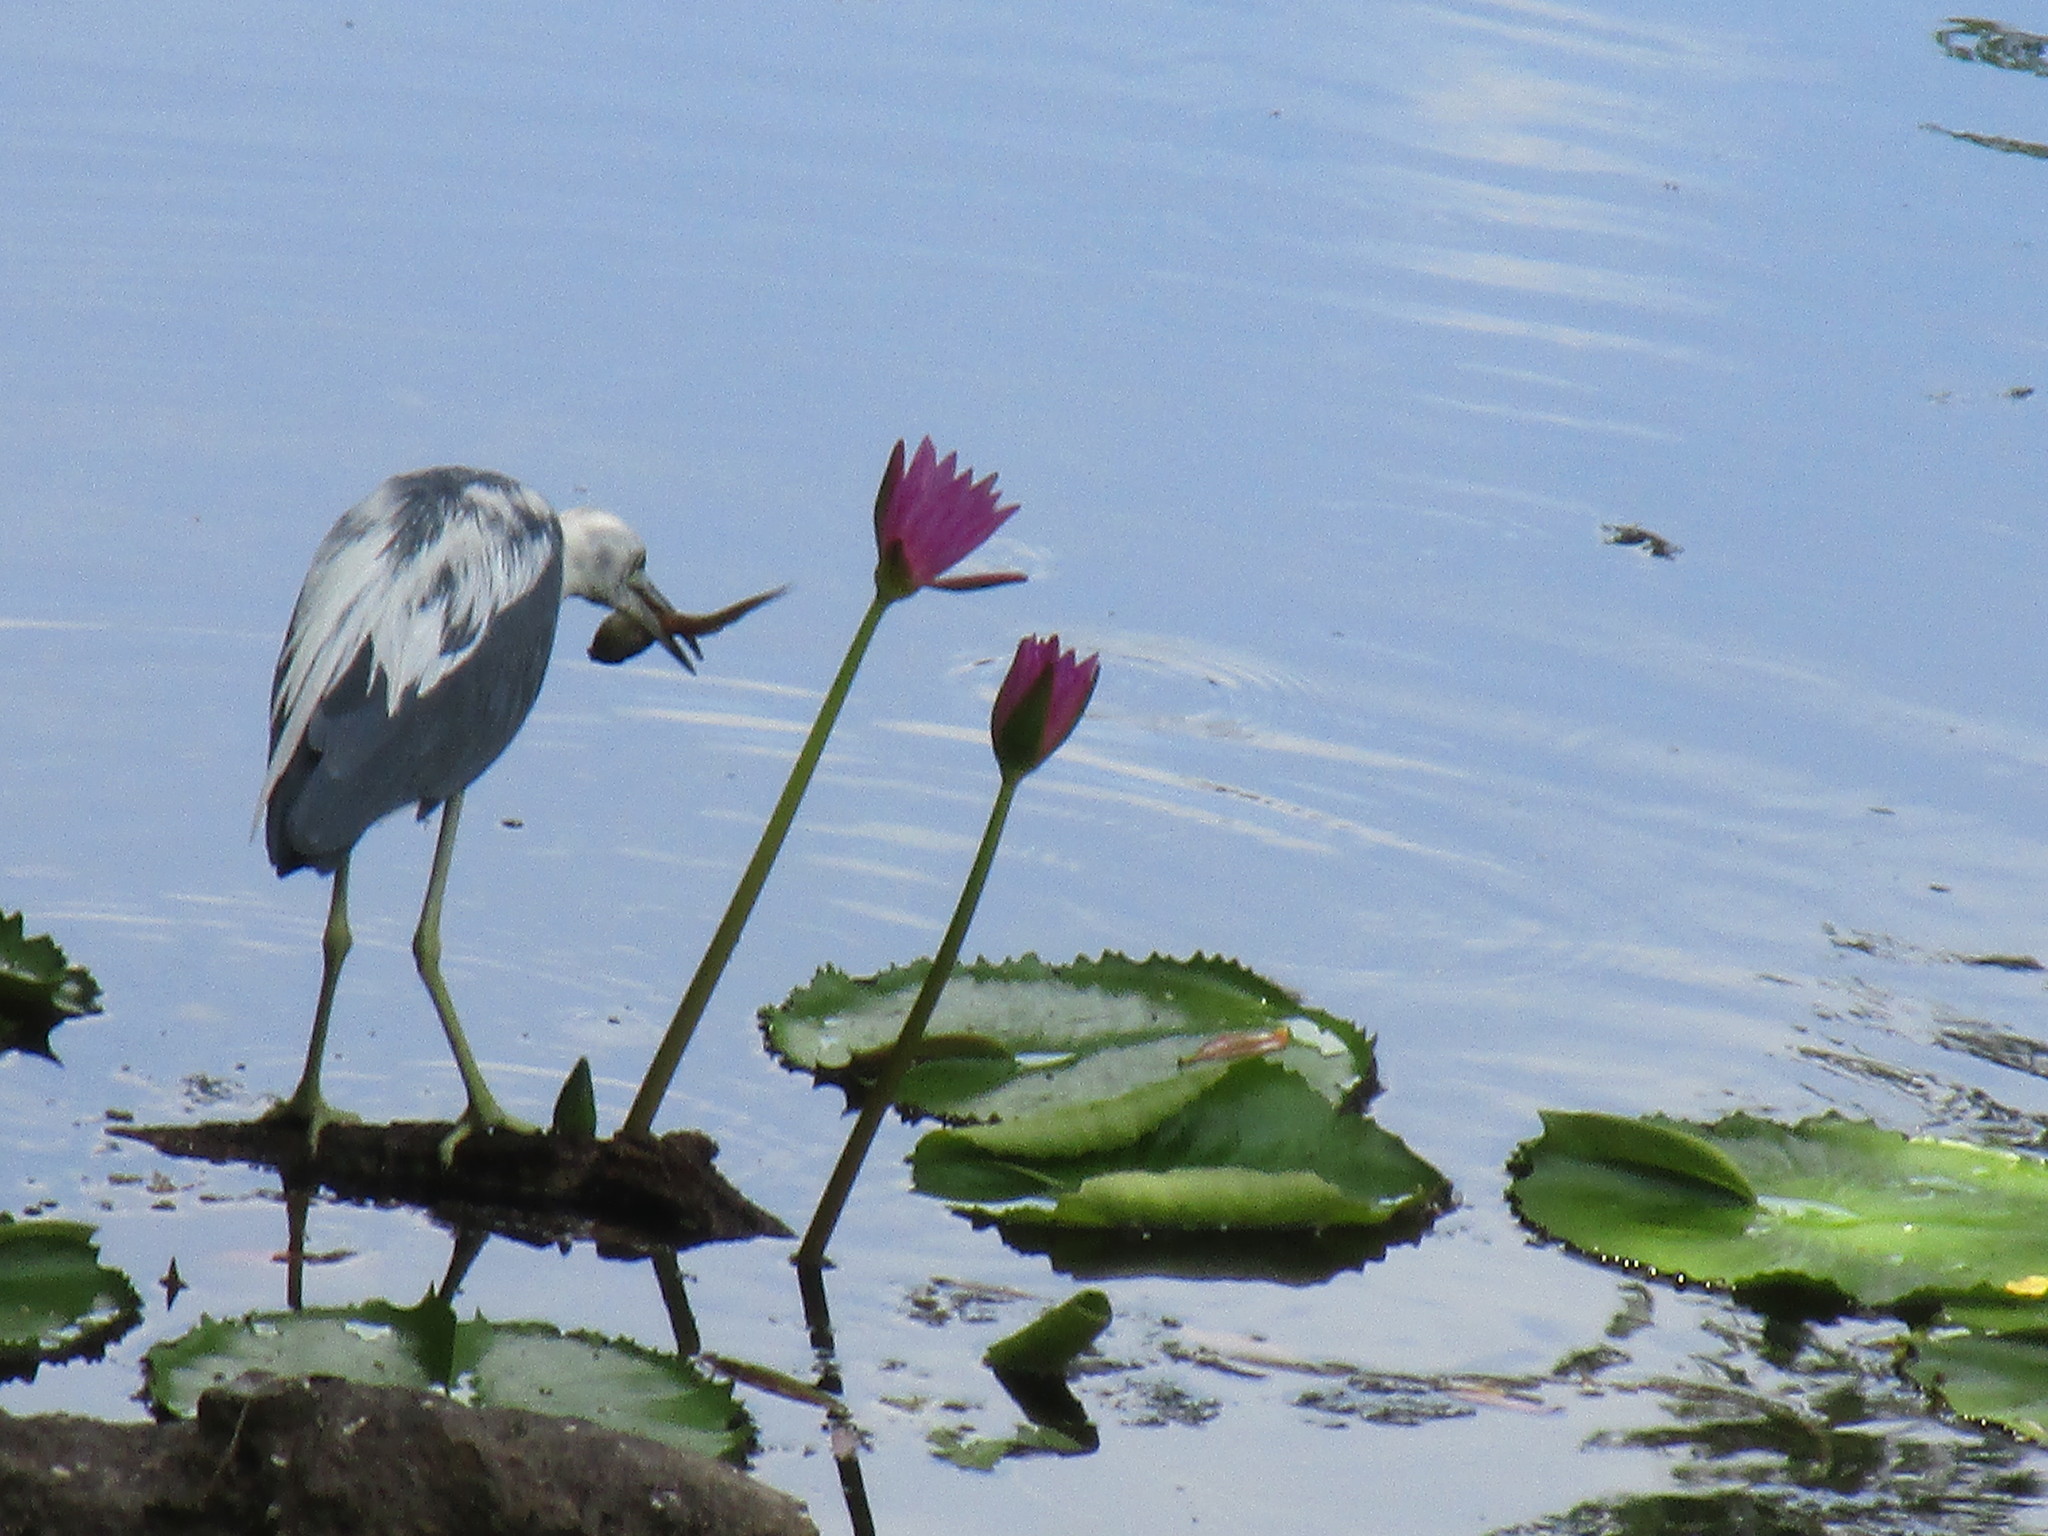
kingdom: Animalia
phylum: Chordata
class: Aves
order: Pelecaniformes
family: Ardeidae
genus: Egretta
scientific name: Egretta caerulea
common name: Little blue heron
